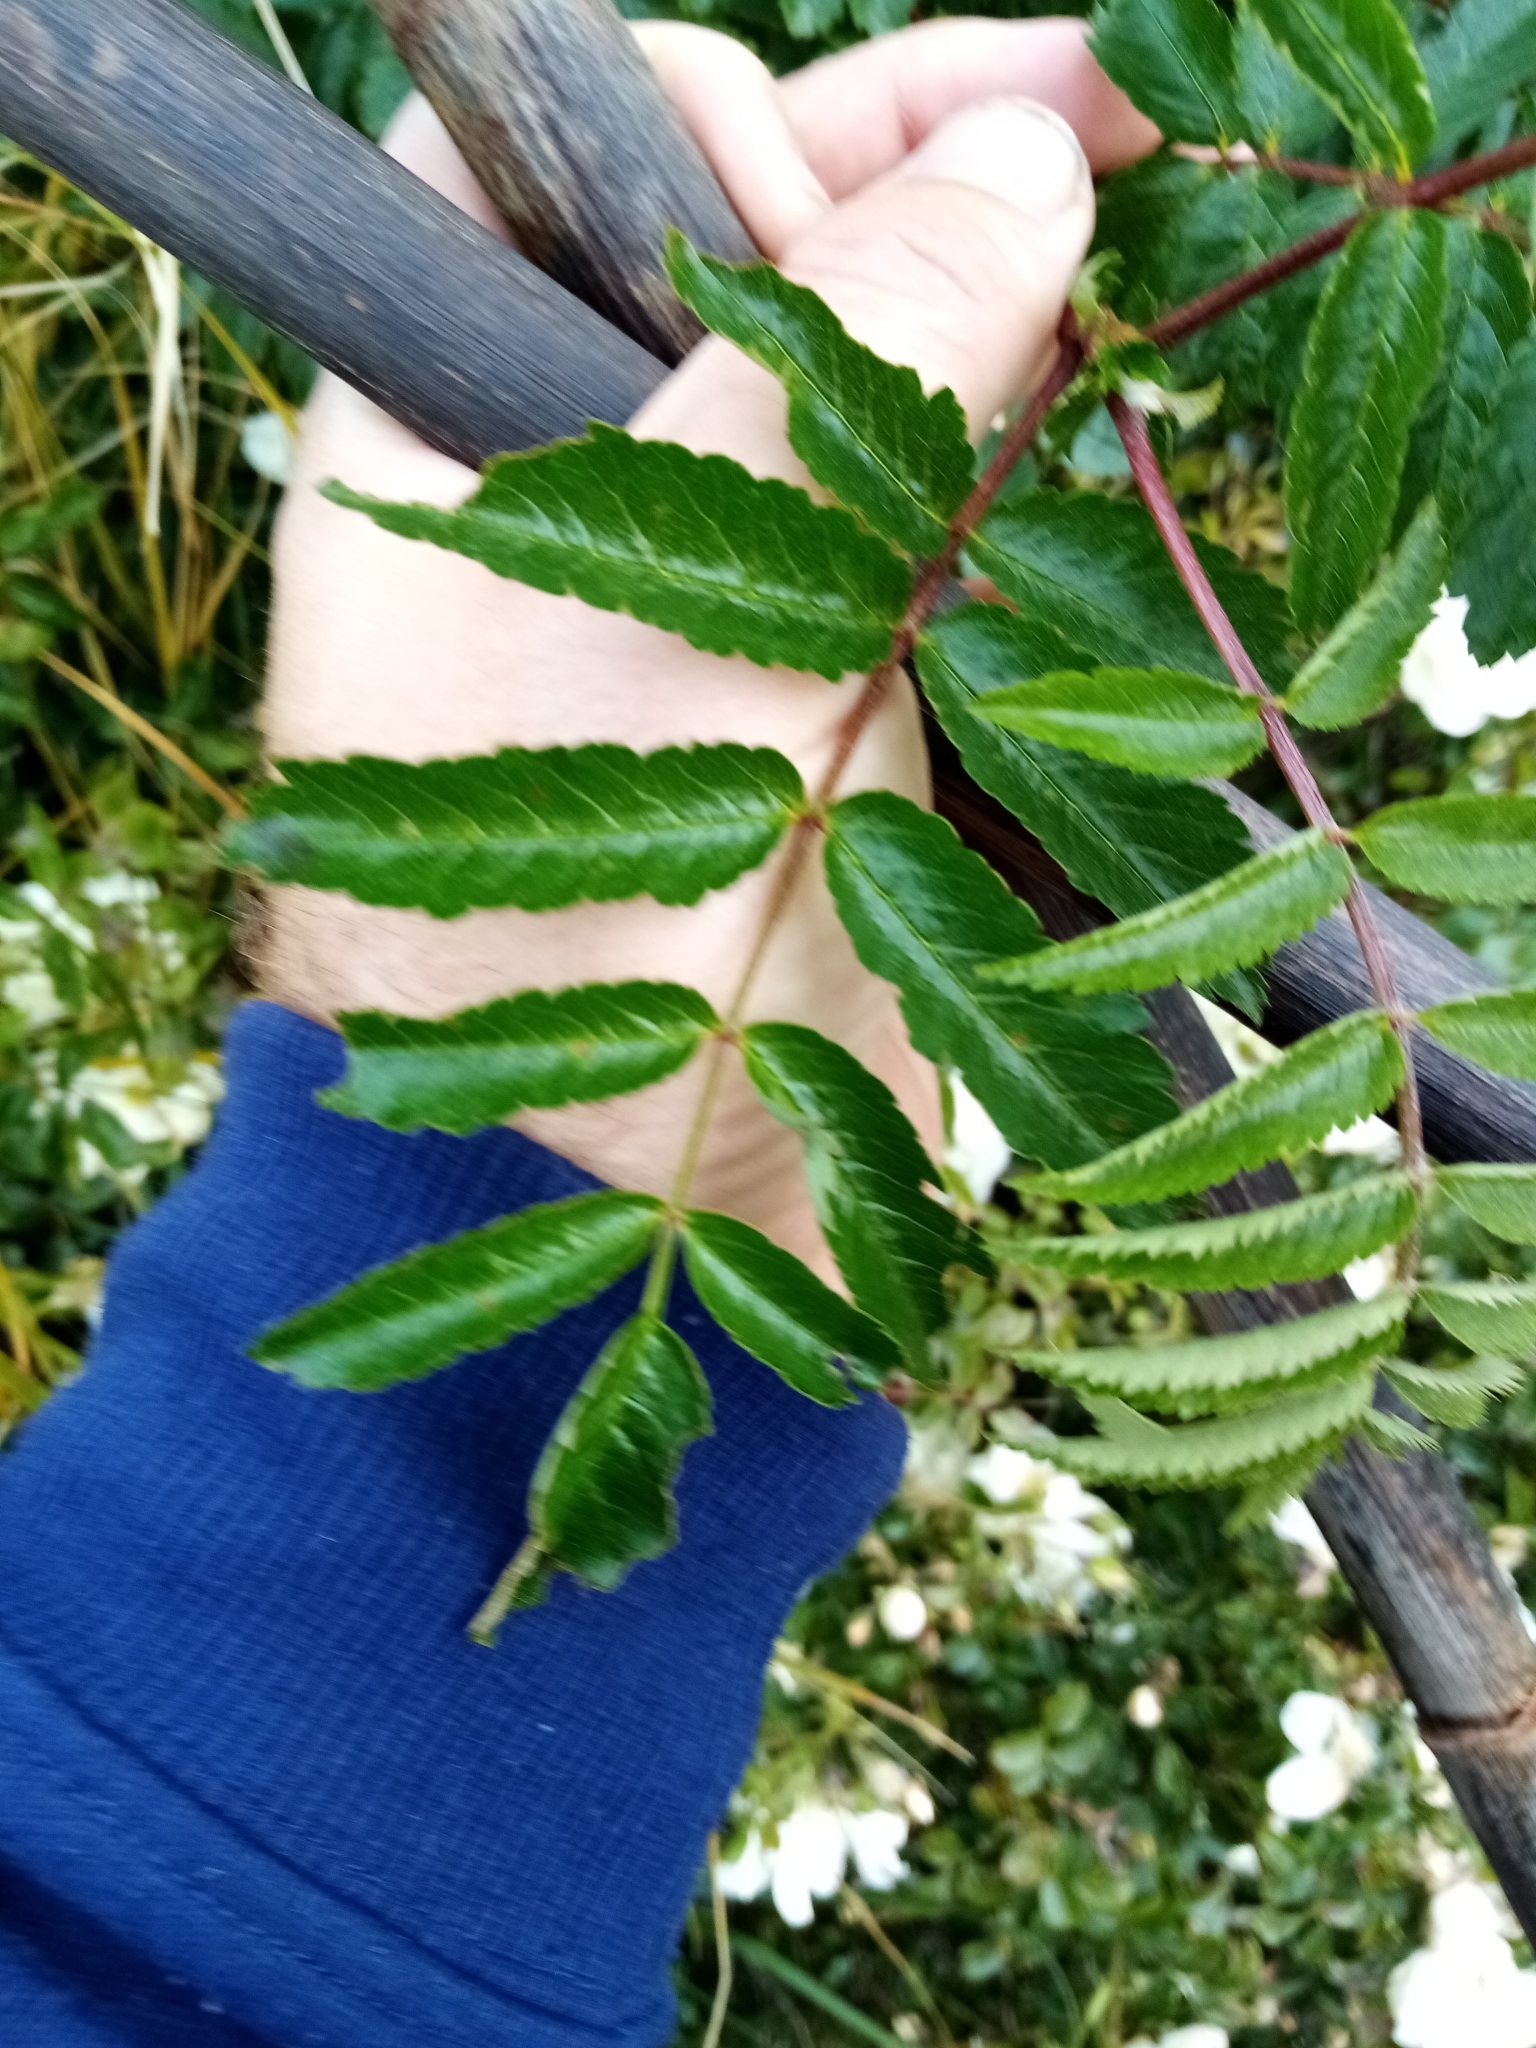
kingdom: Plantae
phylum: Tracheophyta
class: Magnoliopsida
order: Rosales
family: Rosaceae
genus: Sorbus
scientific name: Sorbus aucuparia
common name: Rowan
